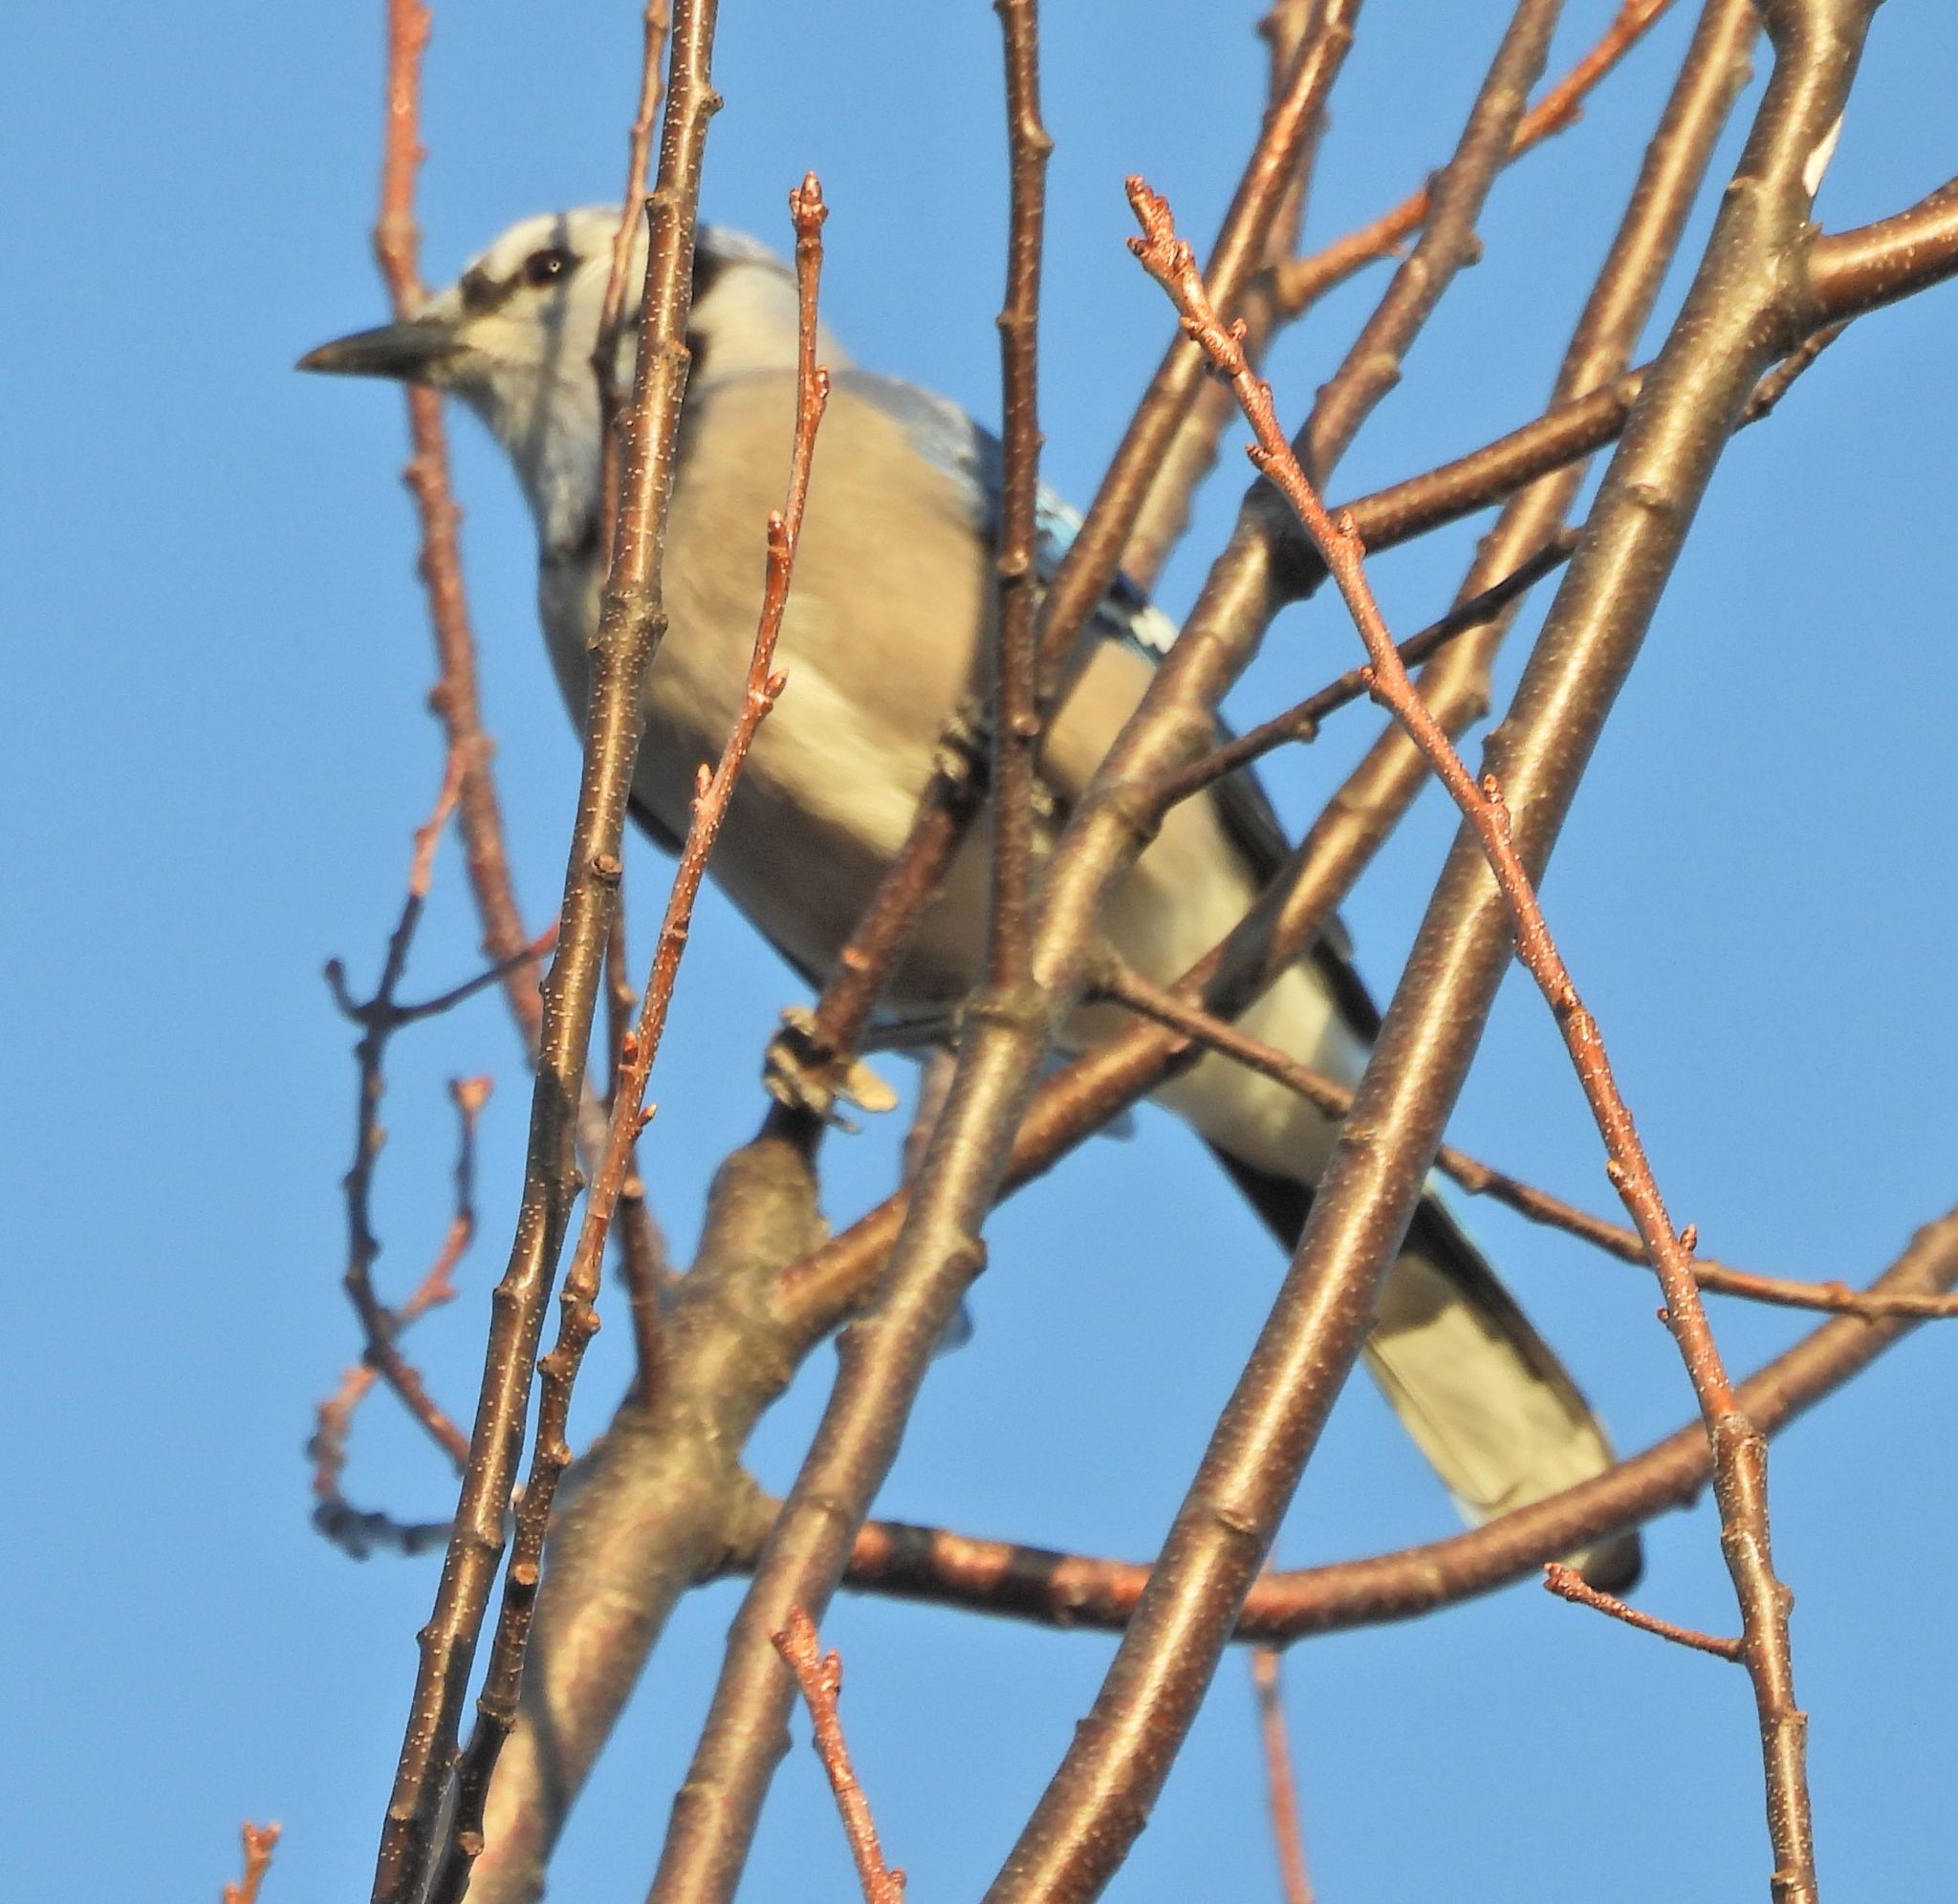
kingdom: Animalia
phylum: Chordata
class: Aves
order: Passeriformes
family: Corvidae
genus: Cyanocitta
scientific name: Cyanocitta cristata
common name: Blue jay
